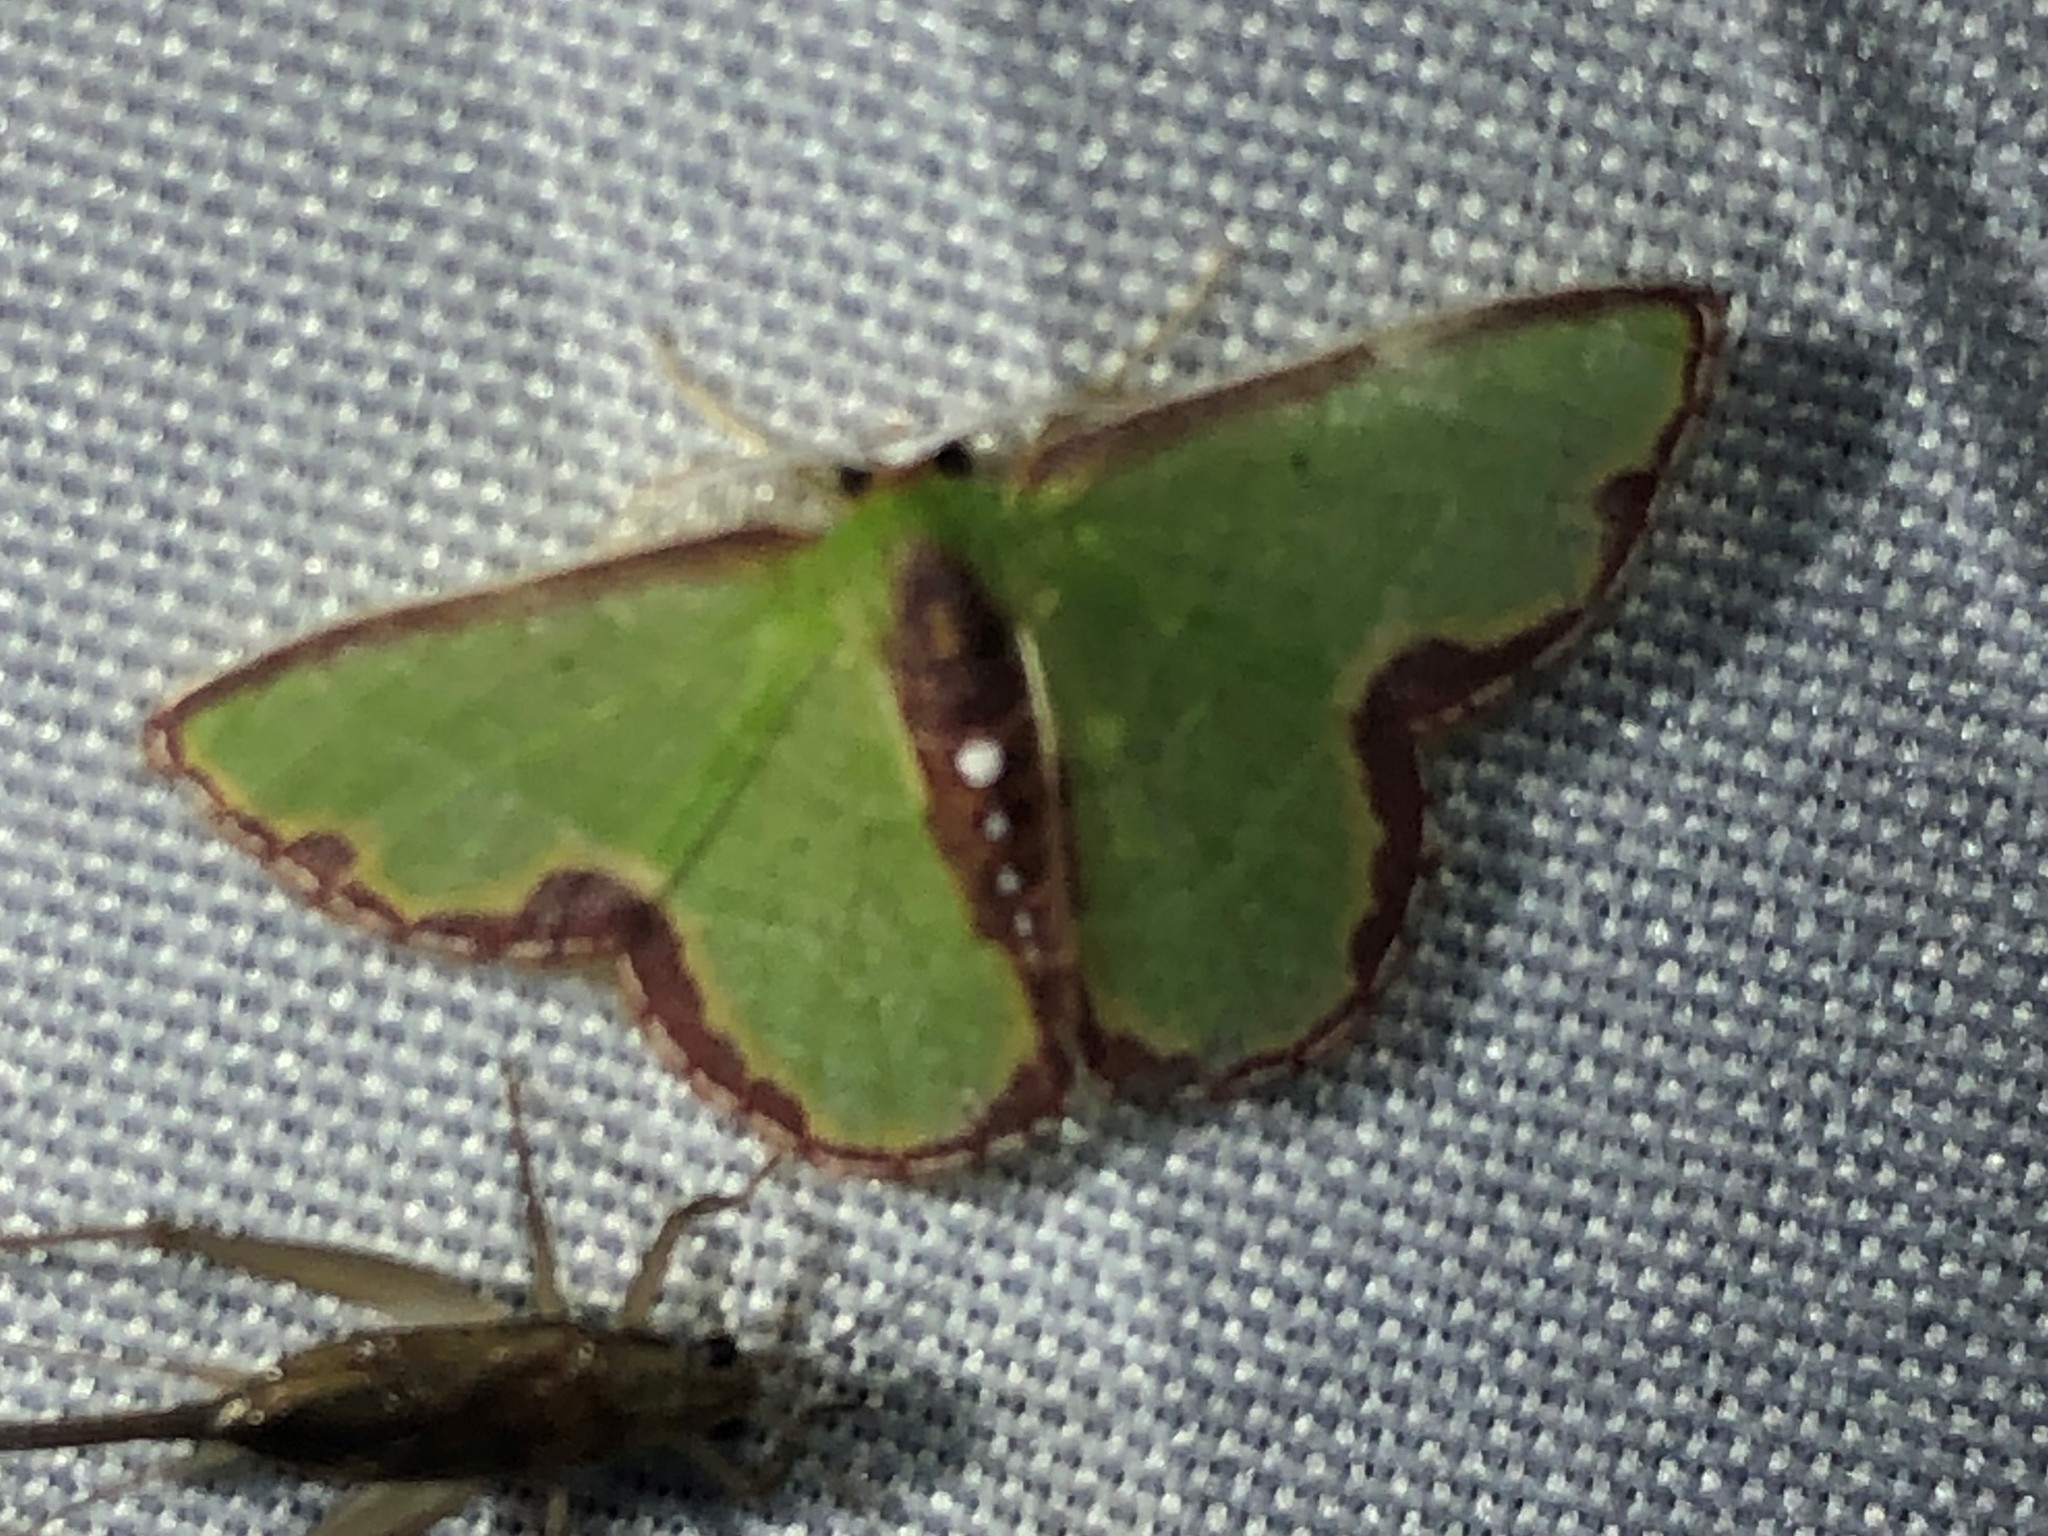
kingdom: Animalia
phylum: Arthropoda
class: Insecta
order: Lepidoptera
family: Geometridae
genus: Synchlora
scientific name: Synchlora expulsata
